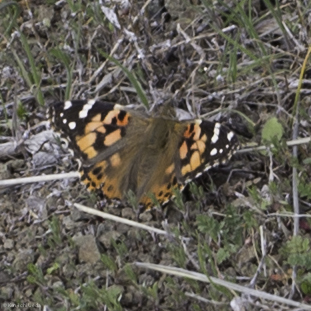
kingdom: Animalia
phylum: Arthropoda
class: Insecta
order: Lepidoptera
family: Nymphalidae
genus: Vanessa
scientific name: Vanessa cardui
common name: Painted lady
